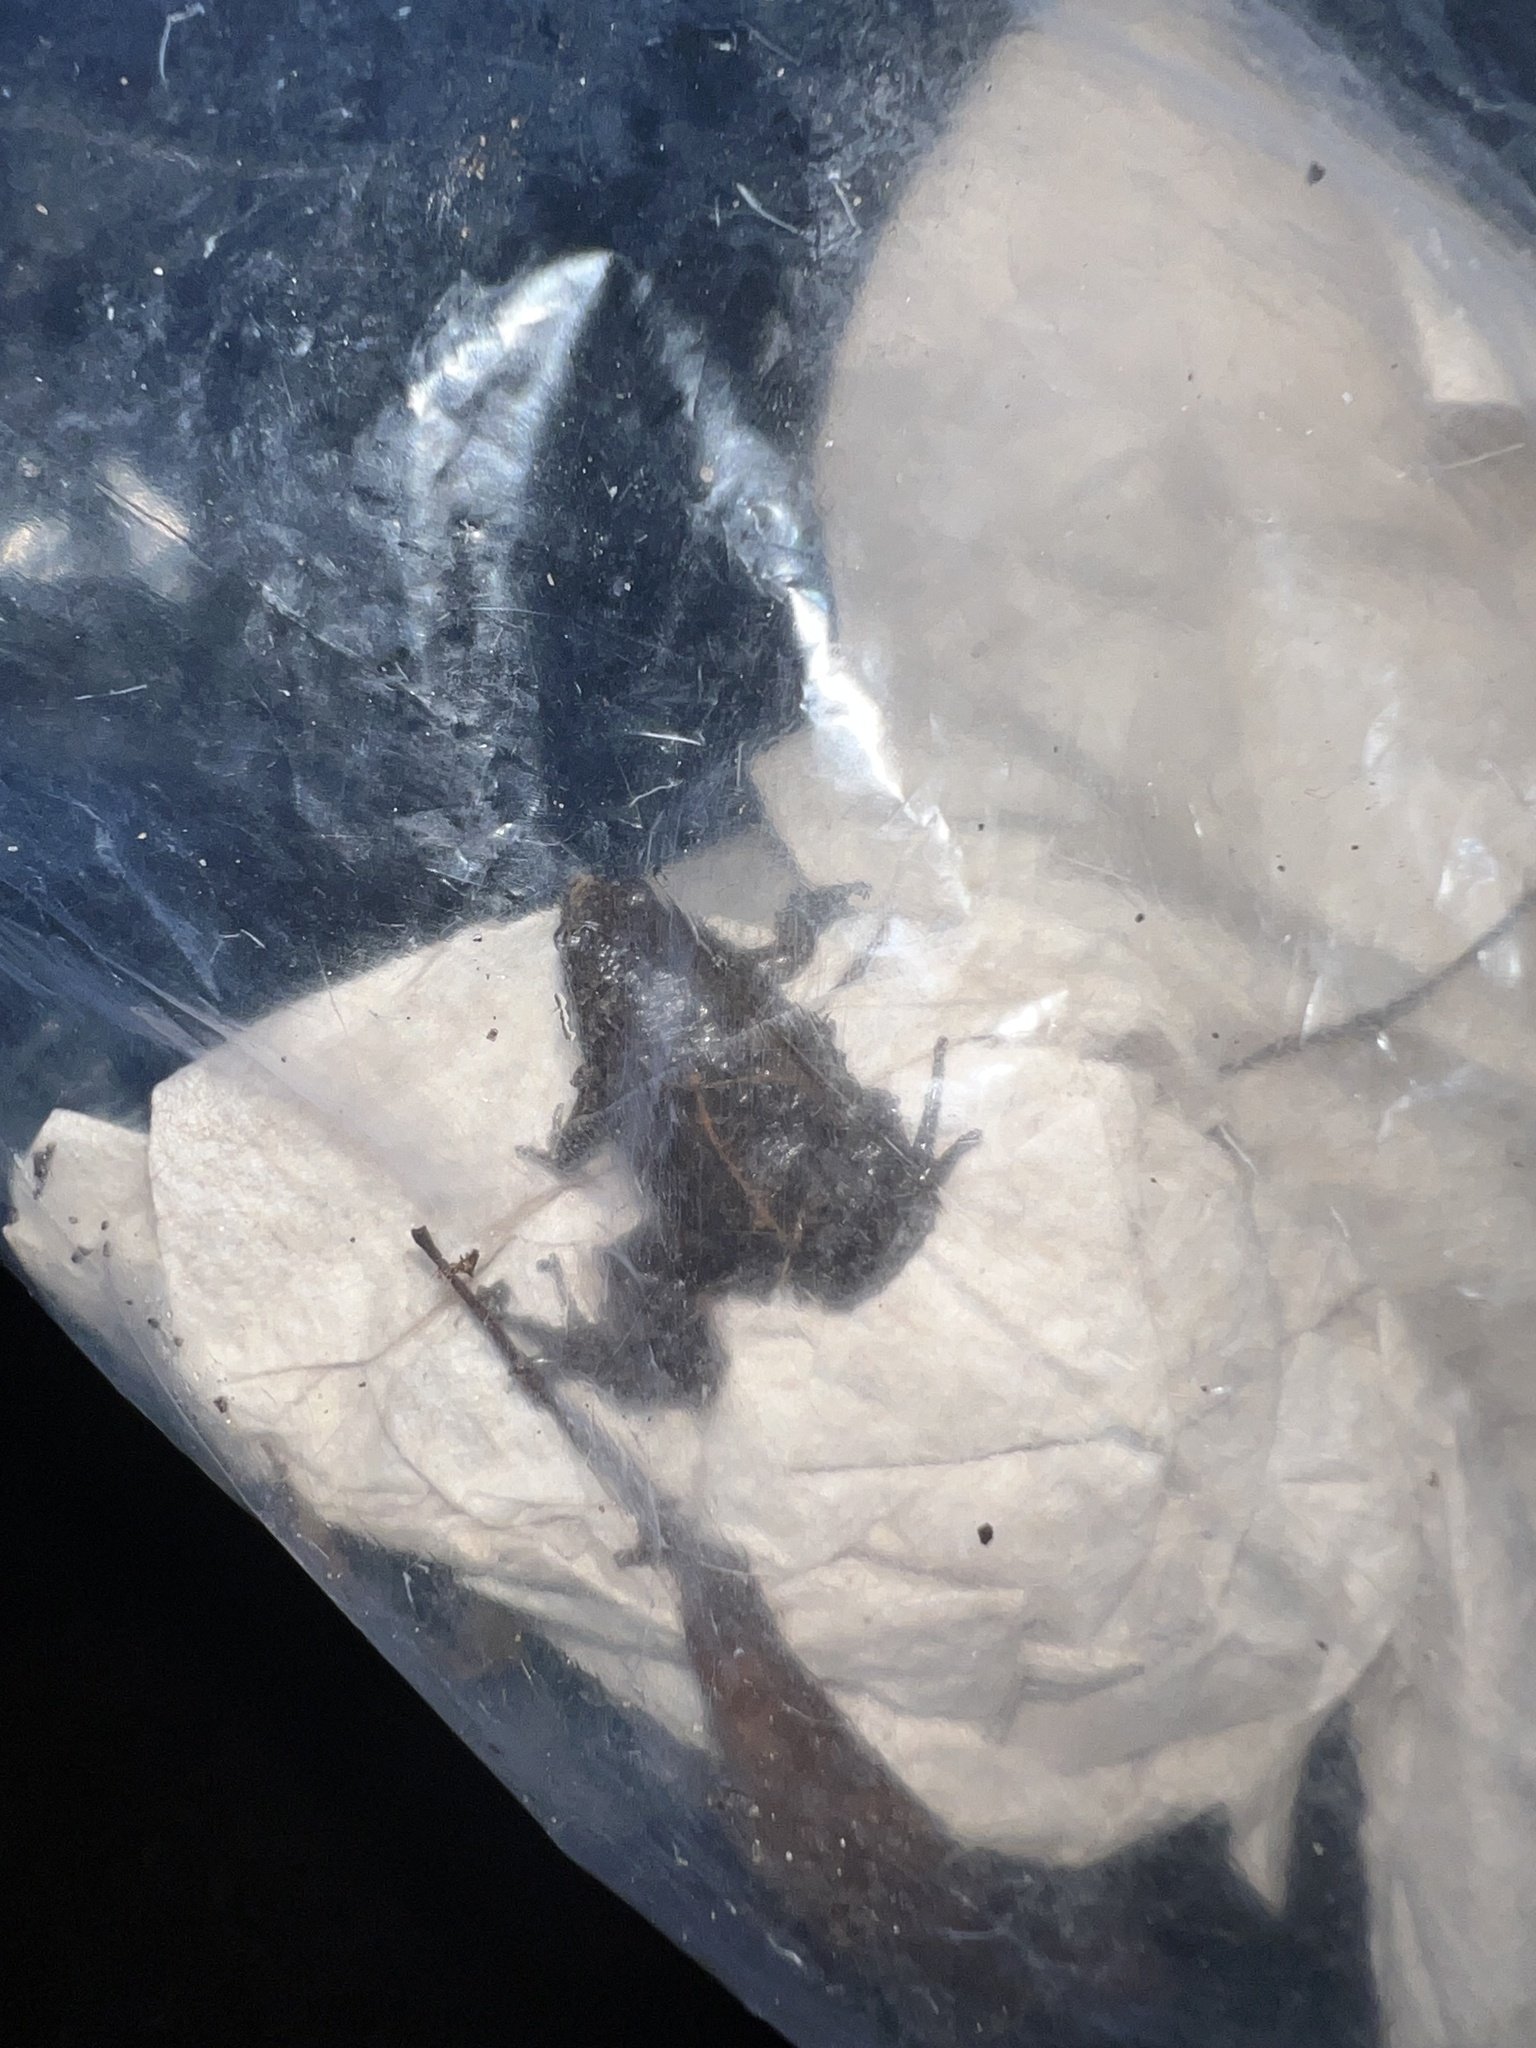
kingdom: Animalia
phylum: Chordata
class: Amphibia
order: Anura
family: Microhylidae
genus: Gastrophryne
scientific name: Gastrophryne carolinensis
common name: Eastern narrowmouth toad
